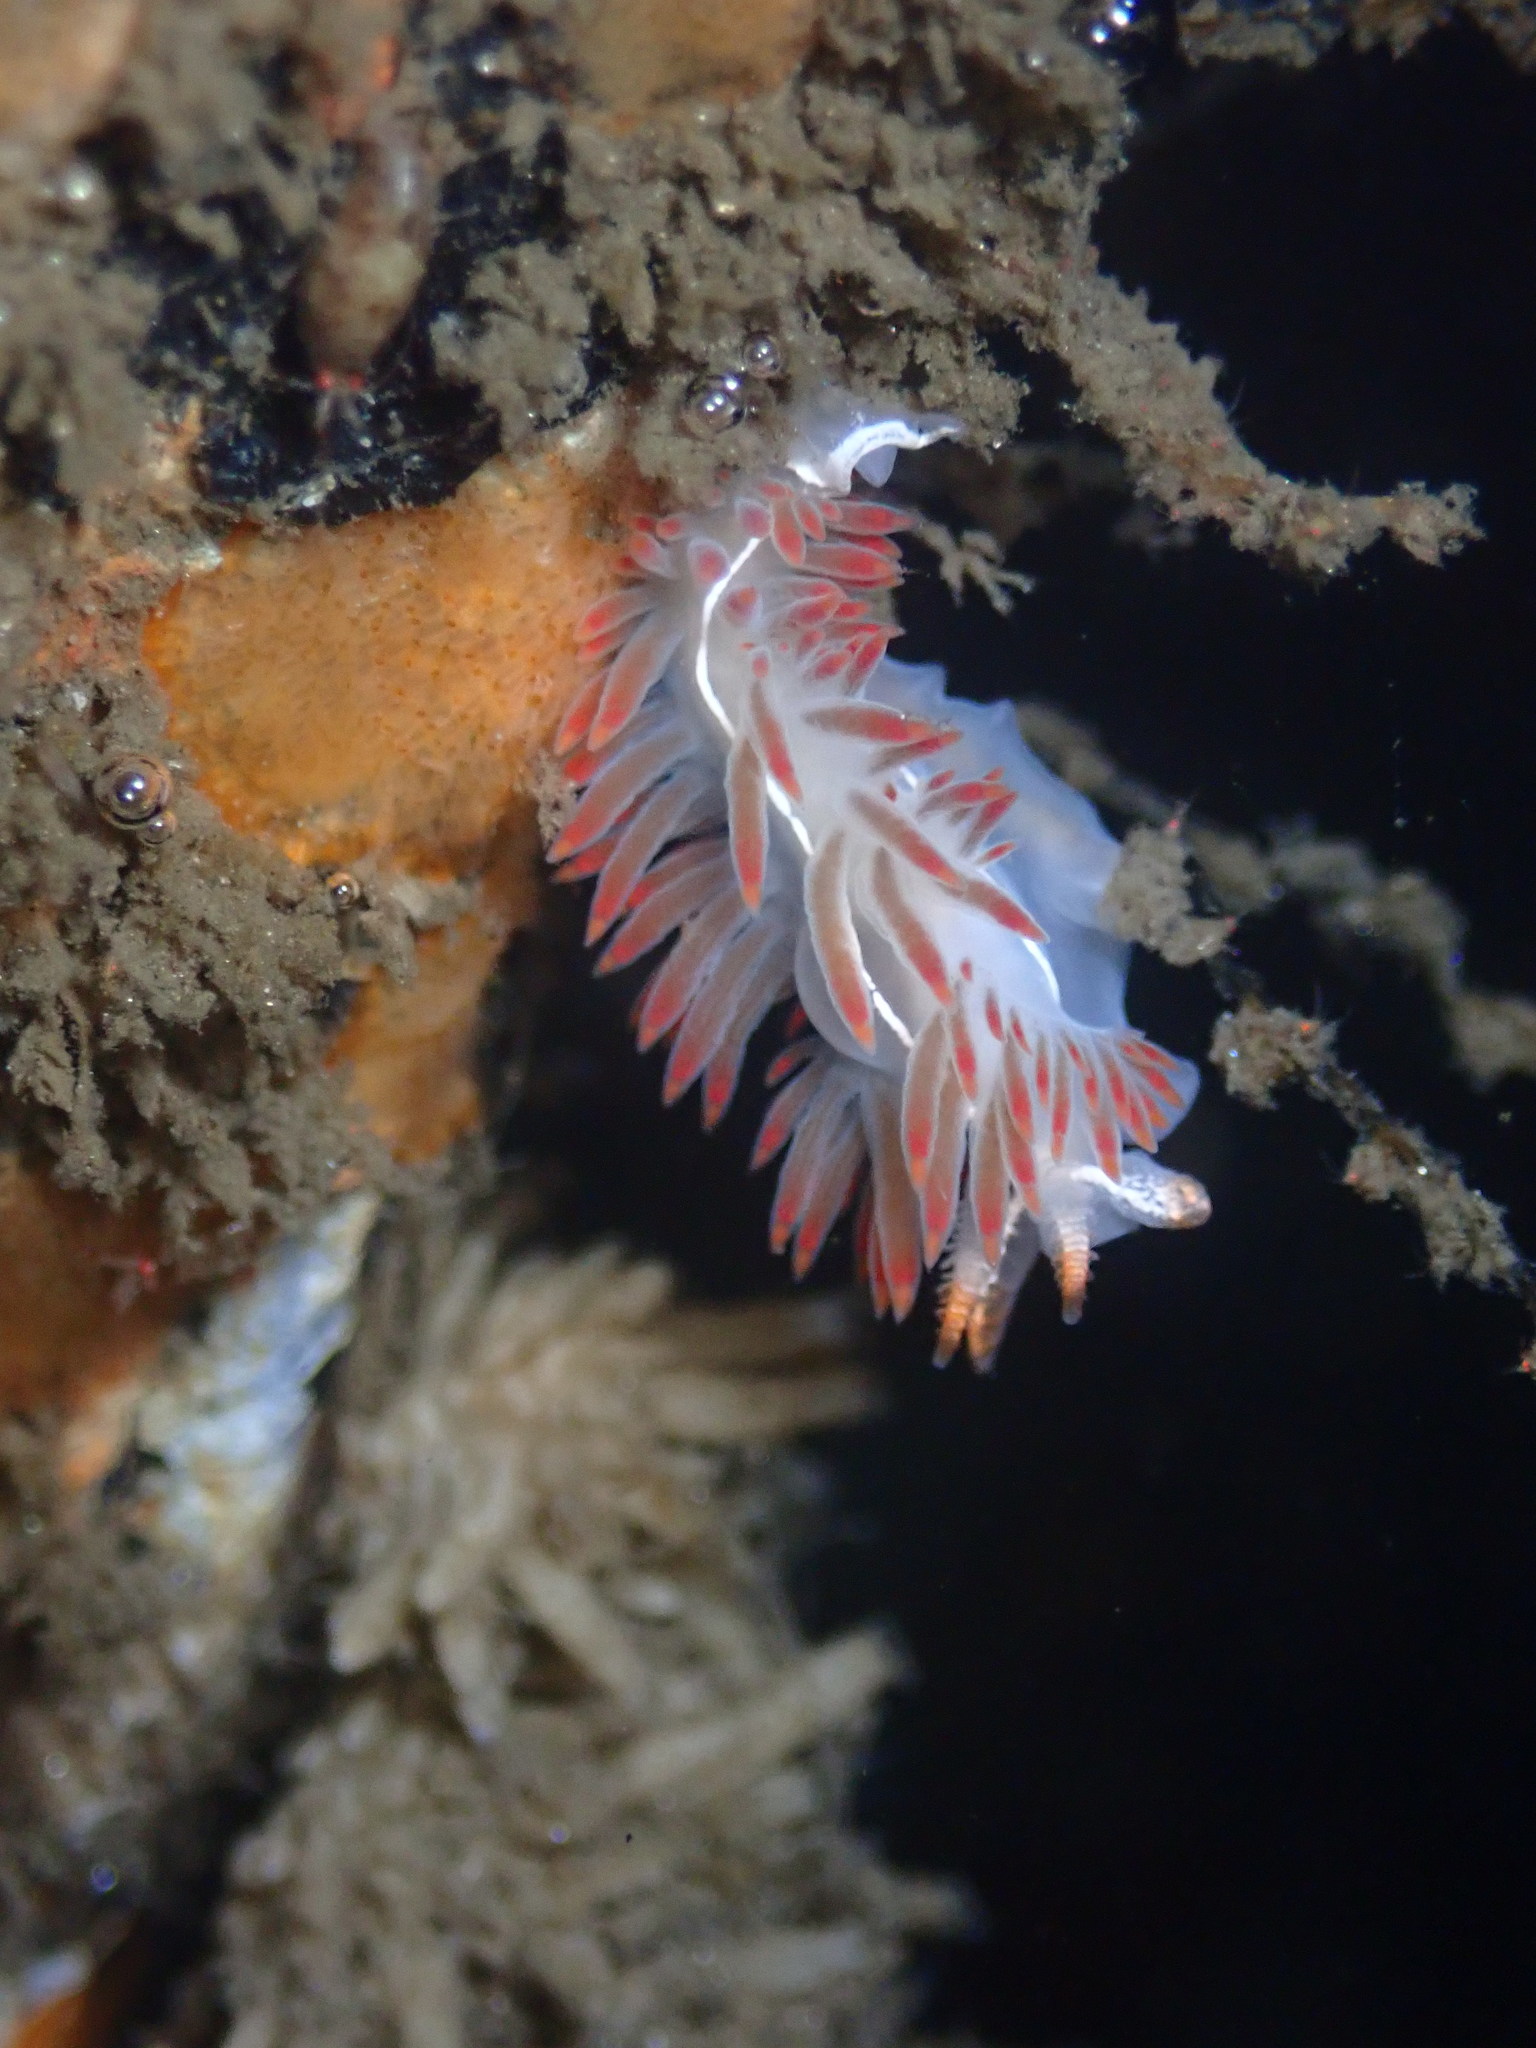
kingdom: Animalia
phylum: Mollusca
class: Gastropoda
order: Nudibranchia
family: Coryphellidae
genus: Coryphella
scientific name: Coryphella trilineata
